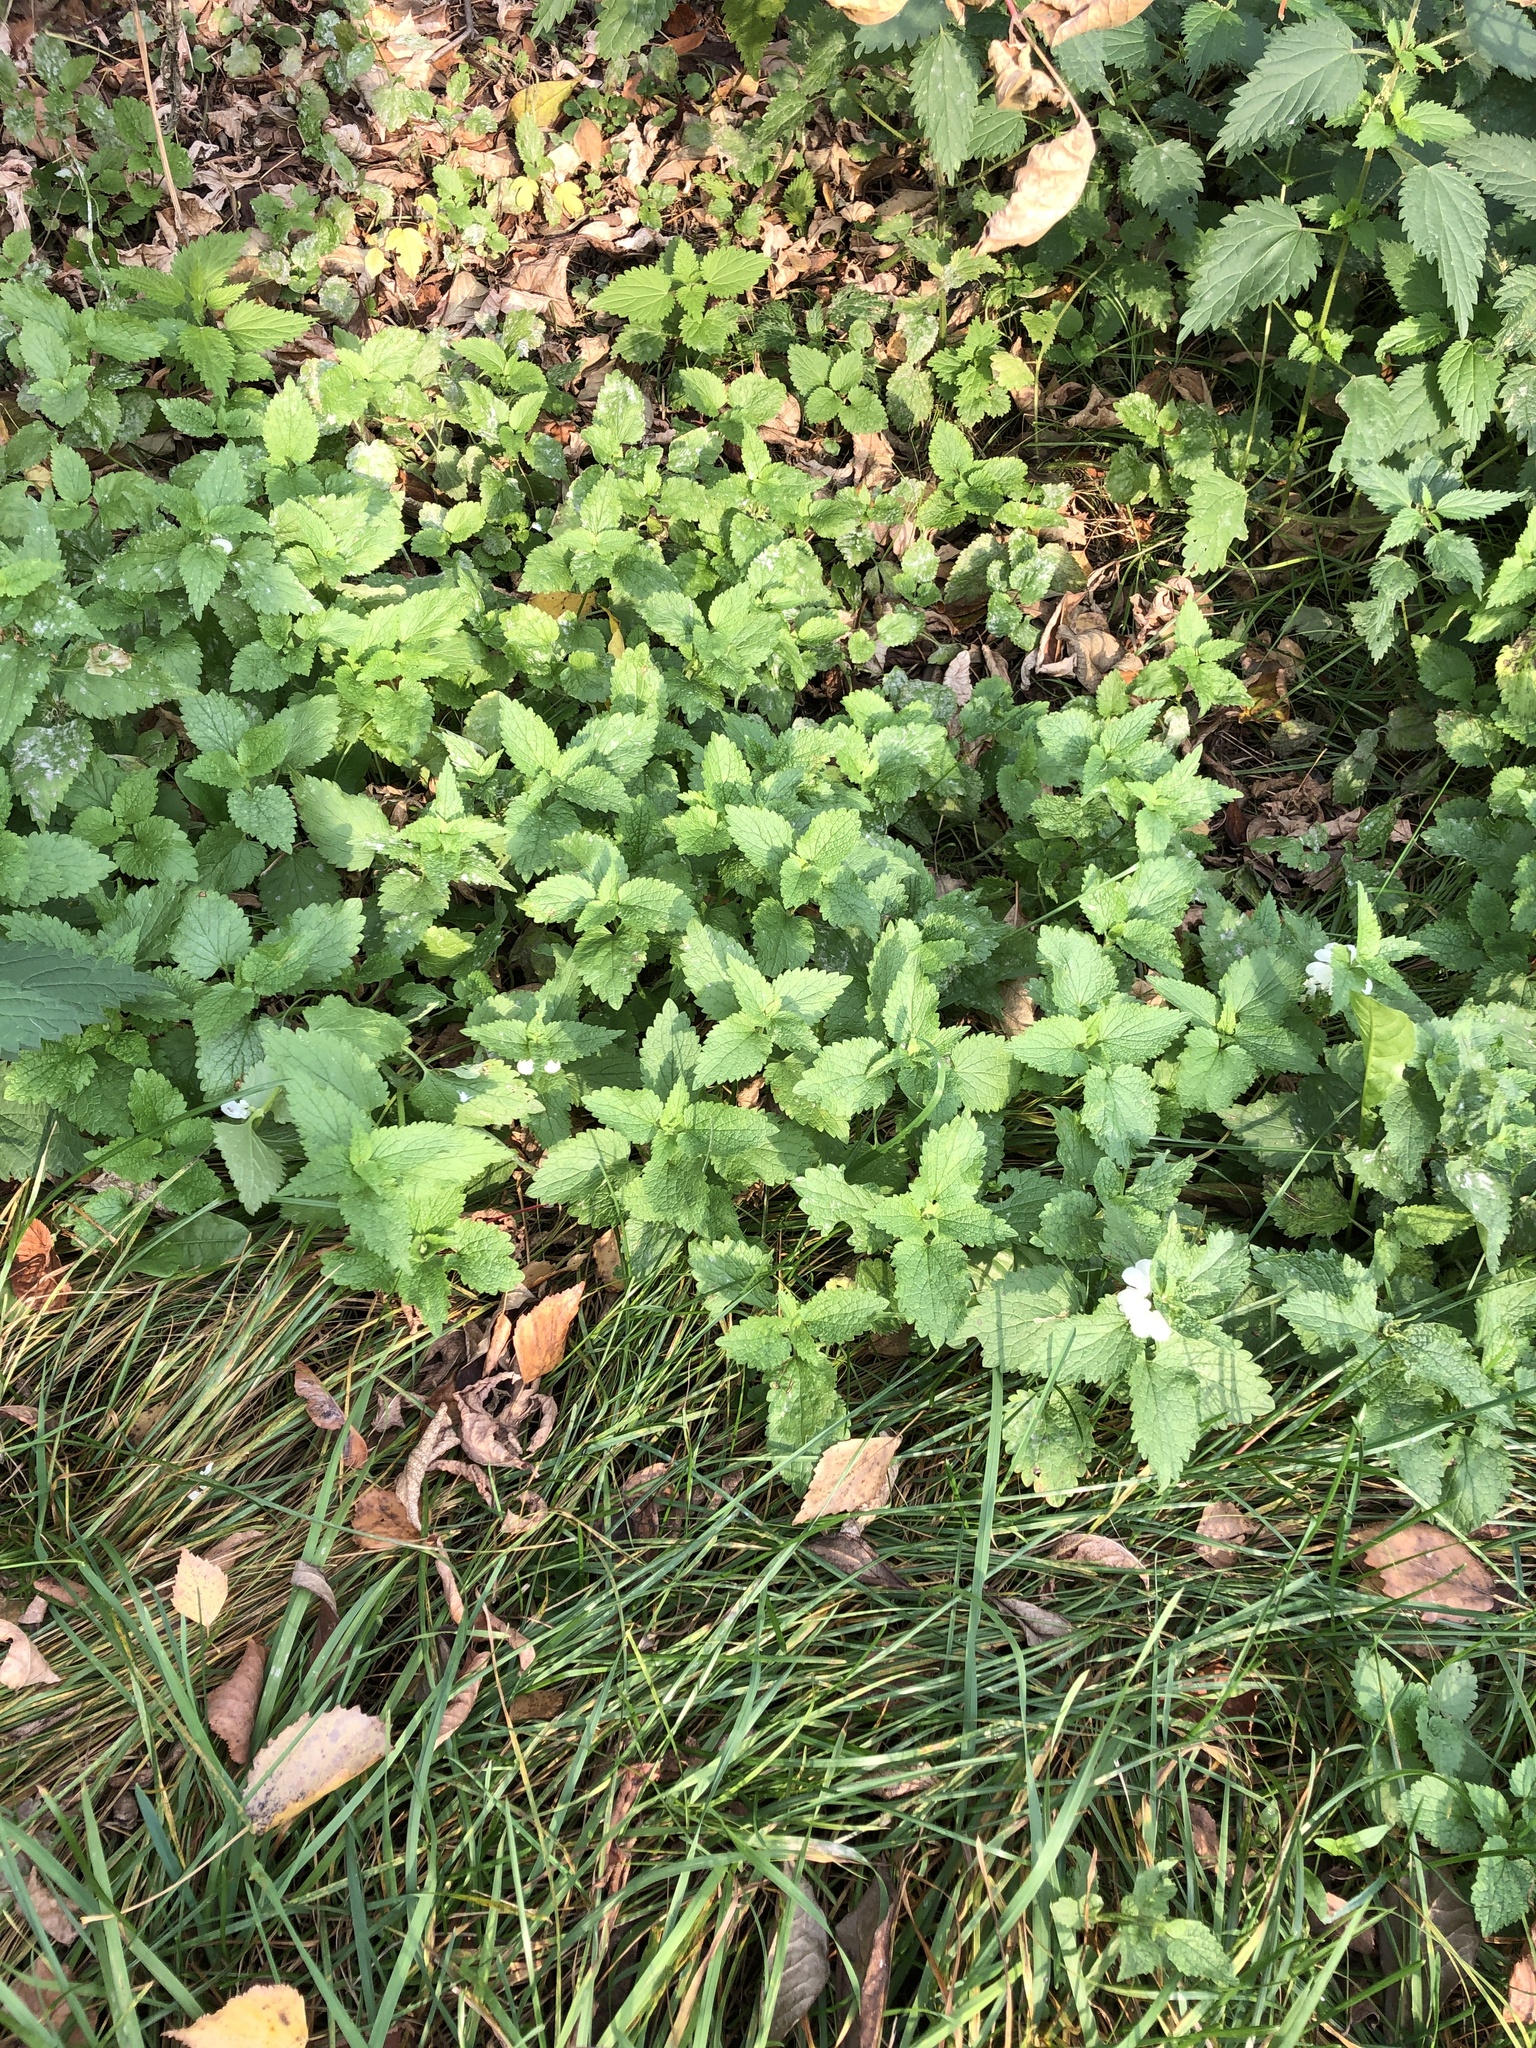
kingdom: Plantae
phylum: Tracheophyta
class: Magnoliopsida
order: Lamiales
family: Lamiaceae
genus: Lamium
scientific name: Lamium album
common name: White dead-nettle
